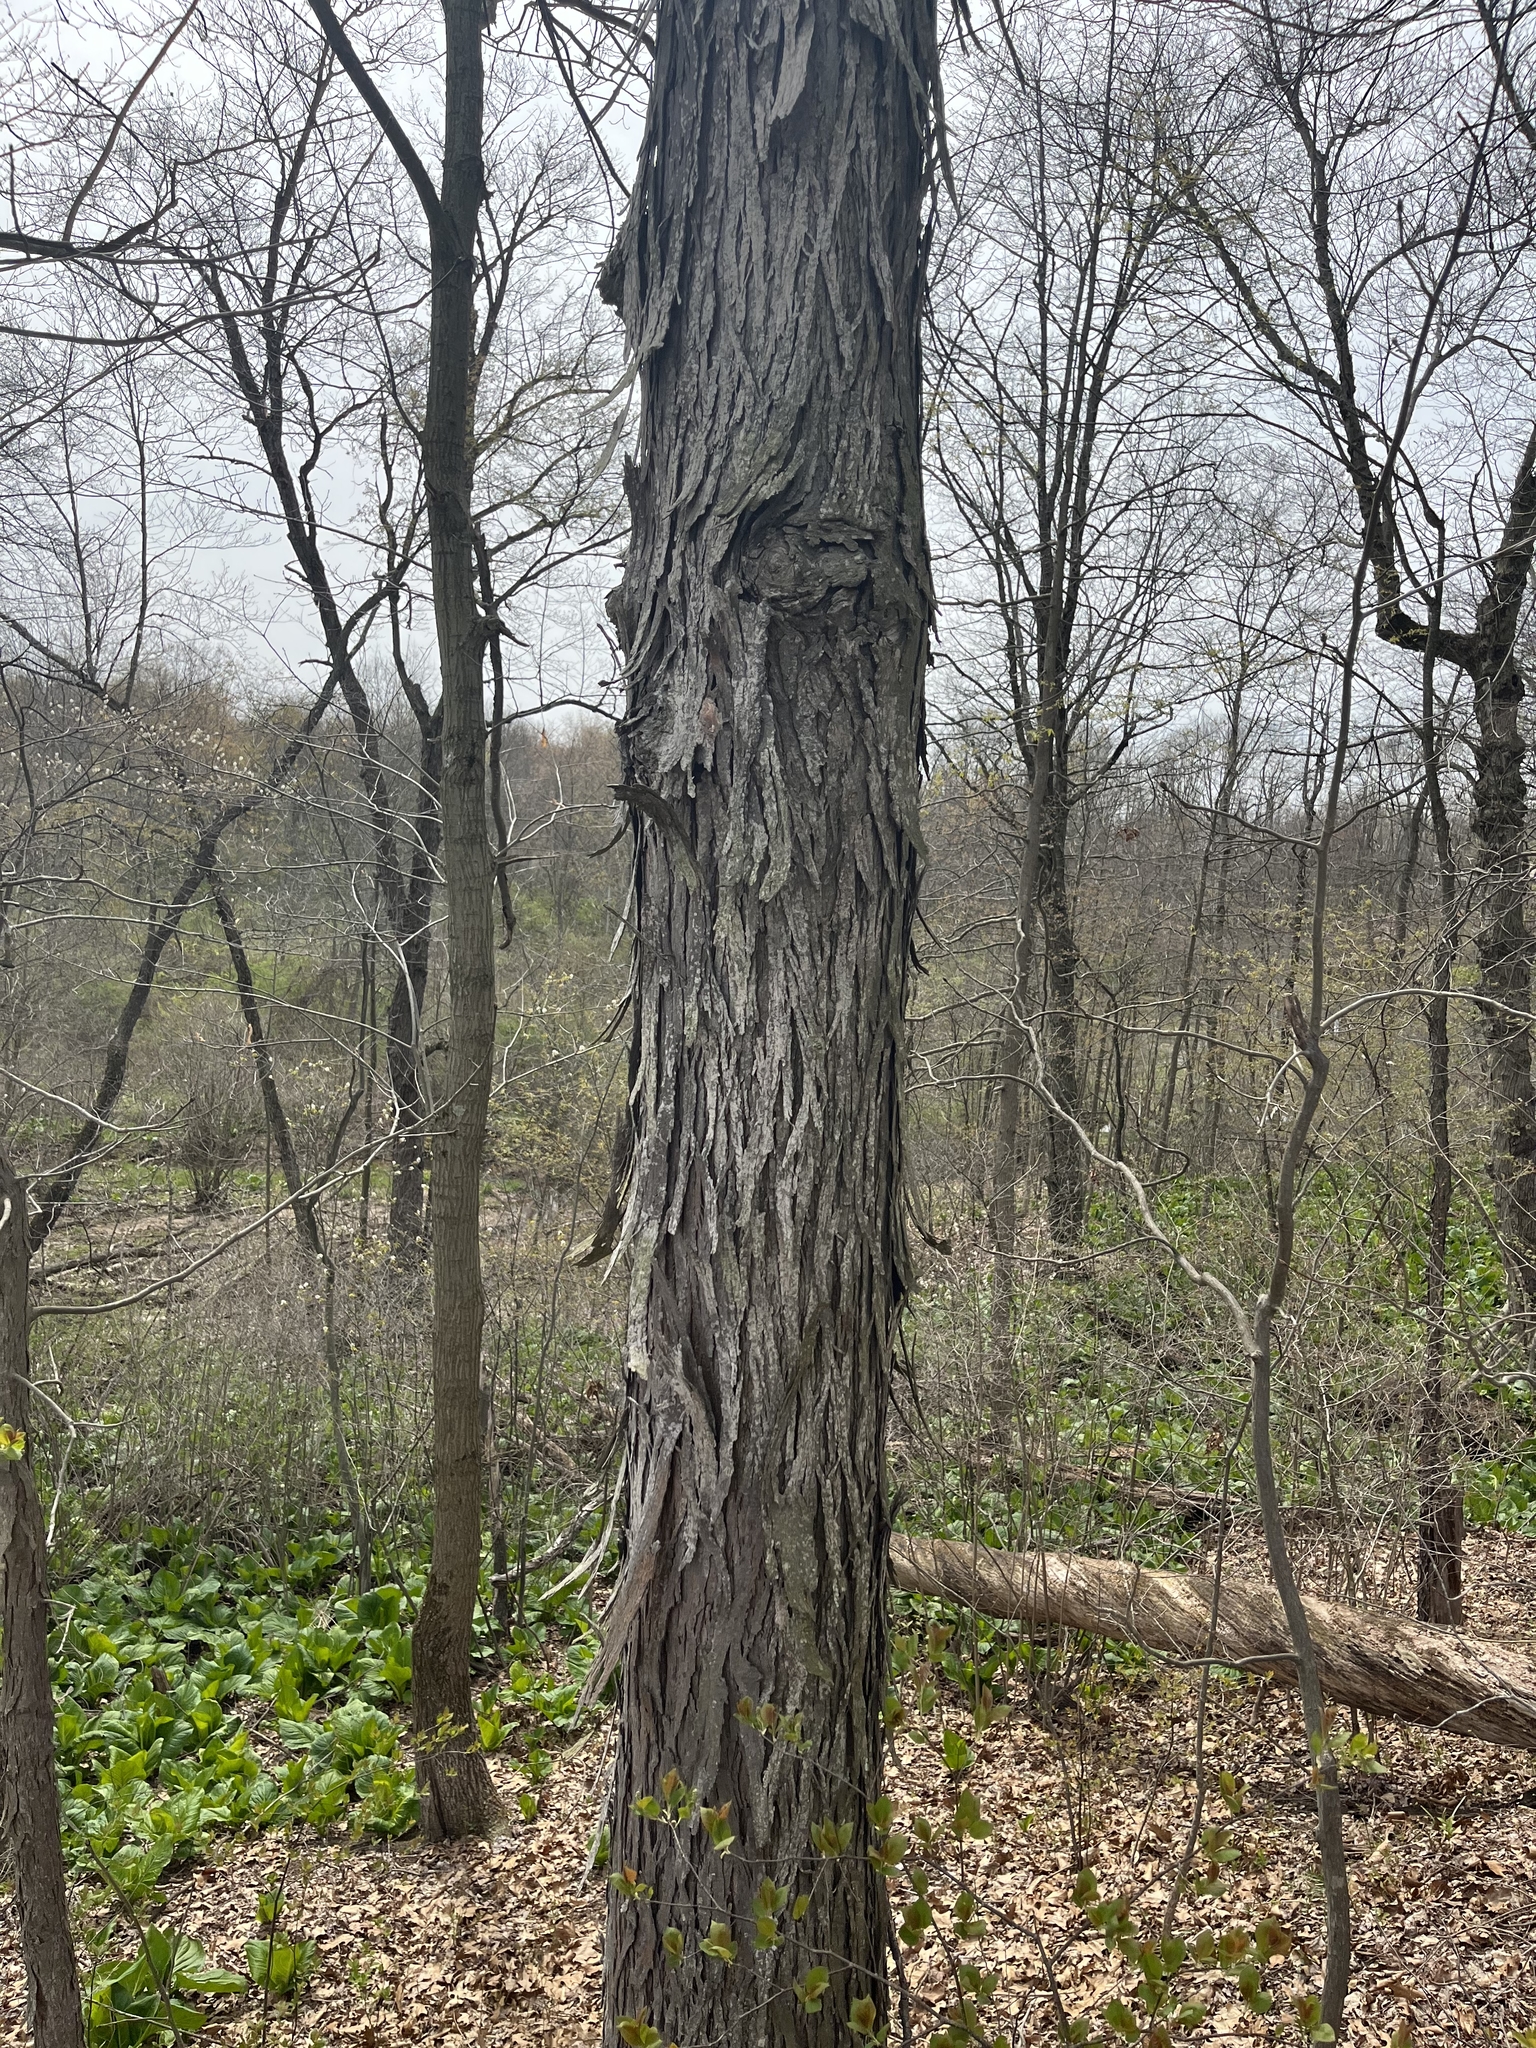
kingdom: Plantae
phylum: Tracheophyta
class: Magnoliopsida
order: Fagales
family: Juglandaceae
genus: Carya
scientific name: Carya ovata
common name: Shagbark hickory
